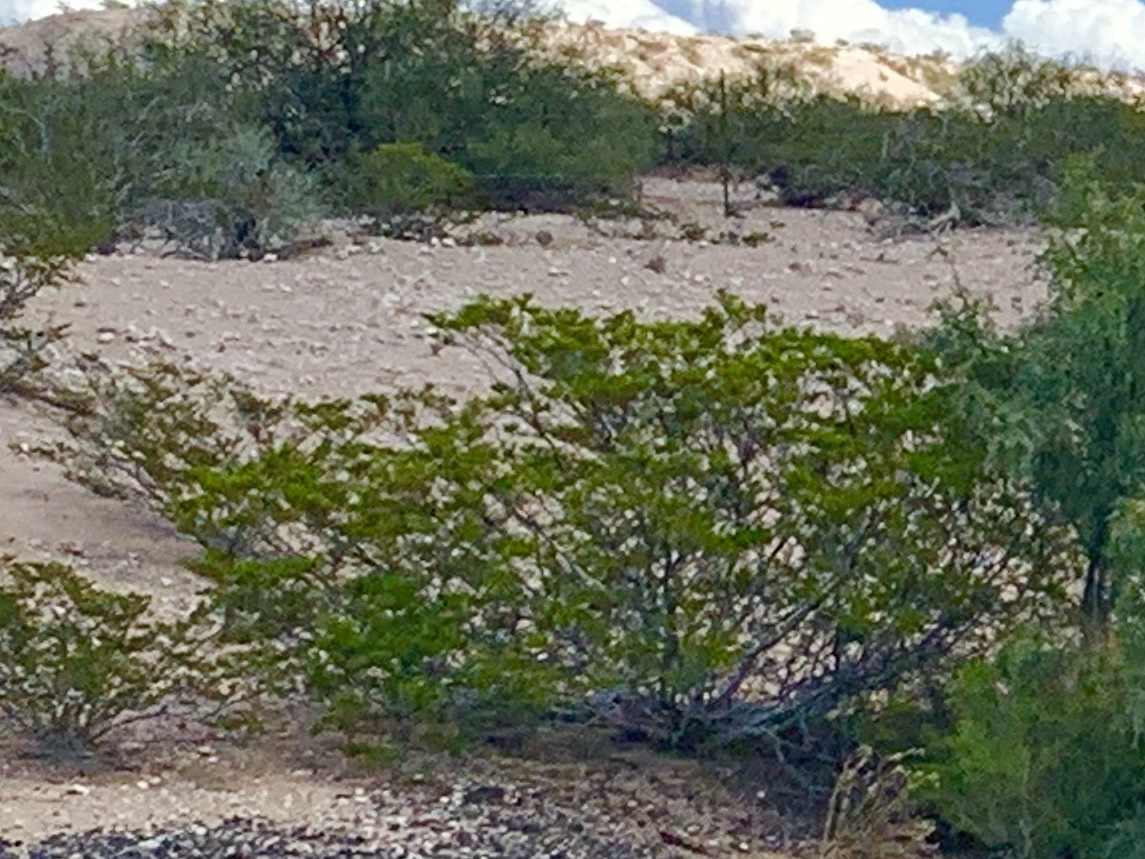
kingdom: Plantae
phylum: Tracheophyta
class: Magnoliopsida
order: Zygophyllales
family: Zygophyllaceae
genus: Larrea
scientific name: Larrea tridentata
